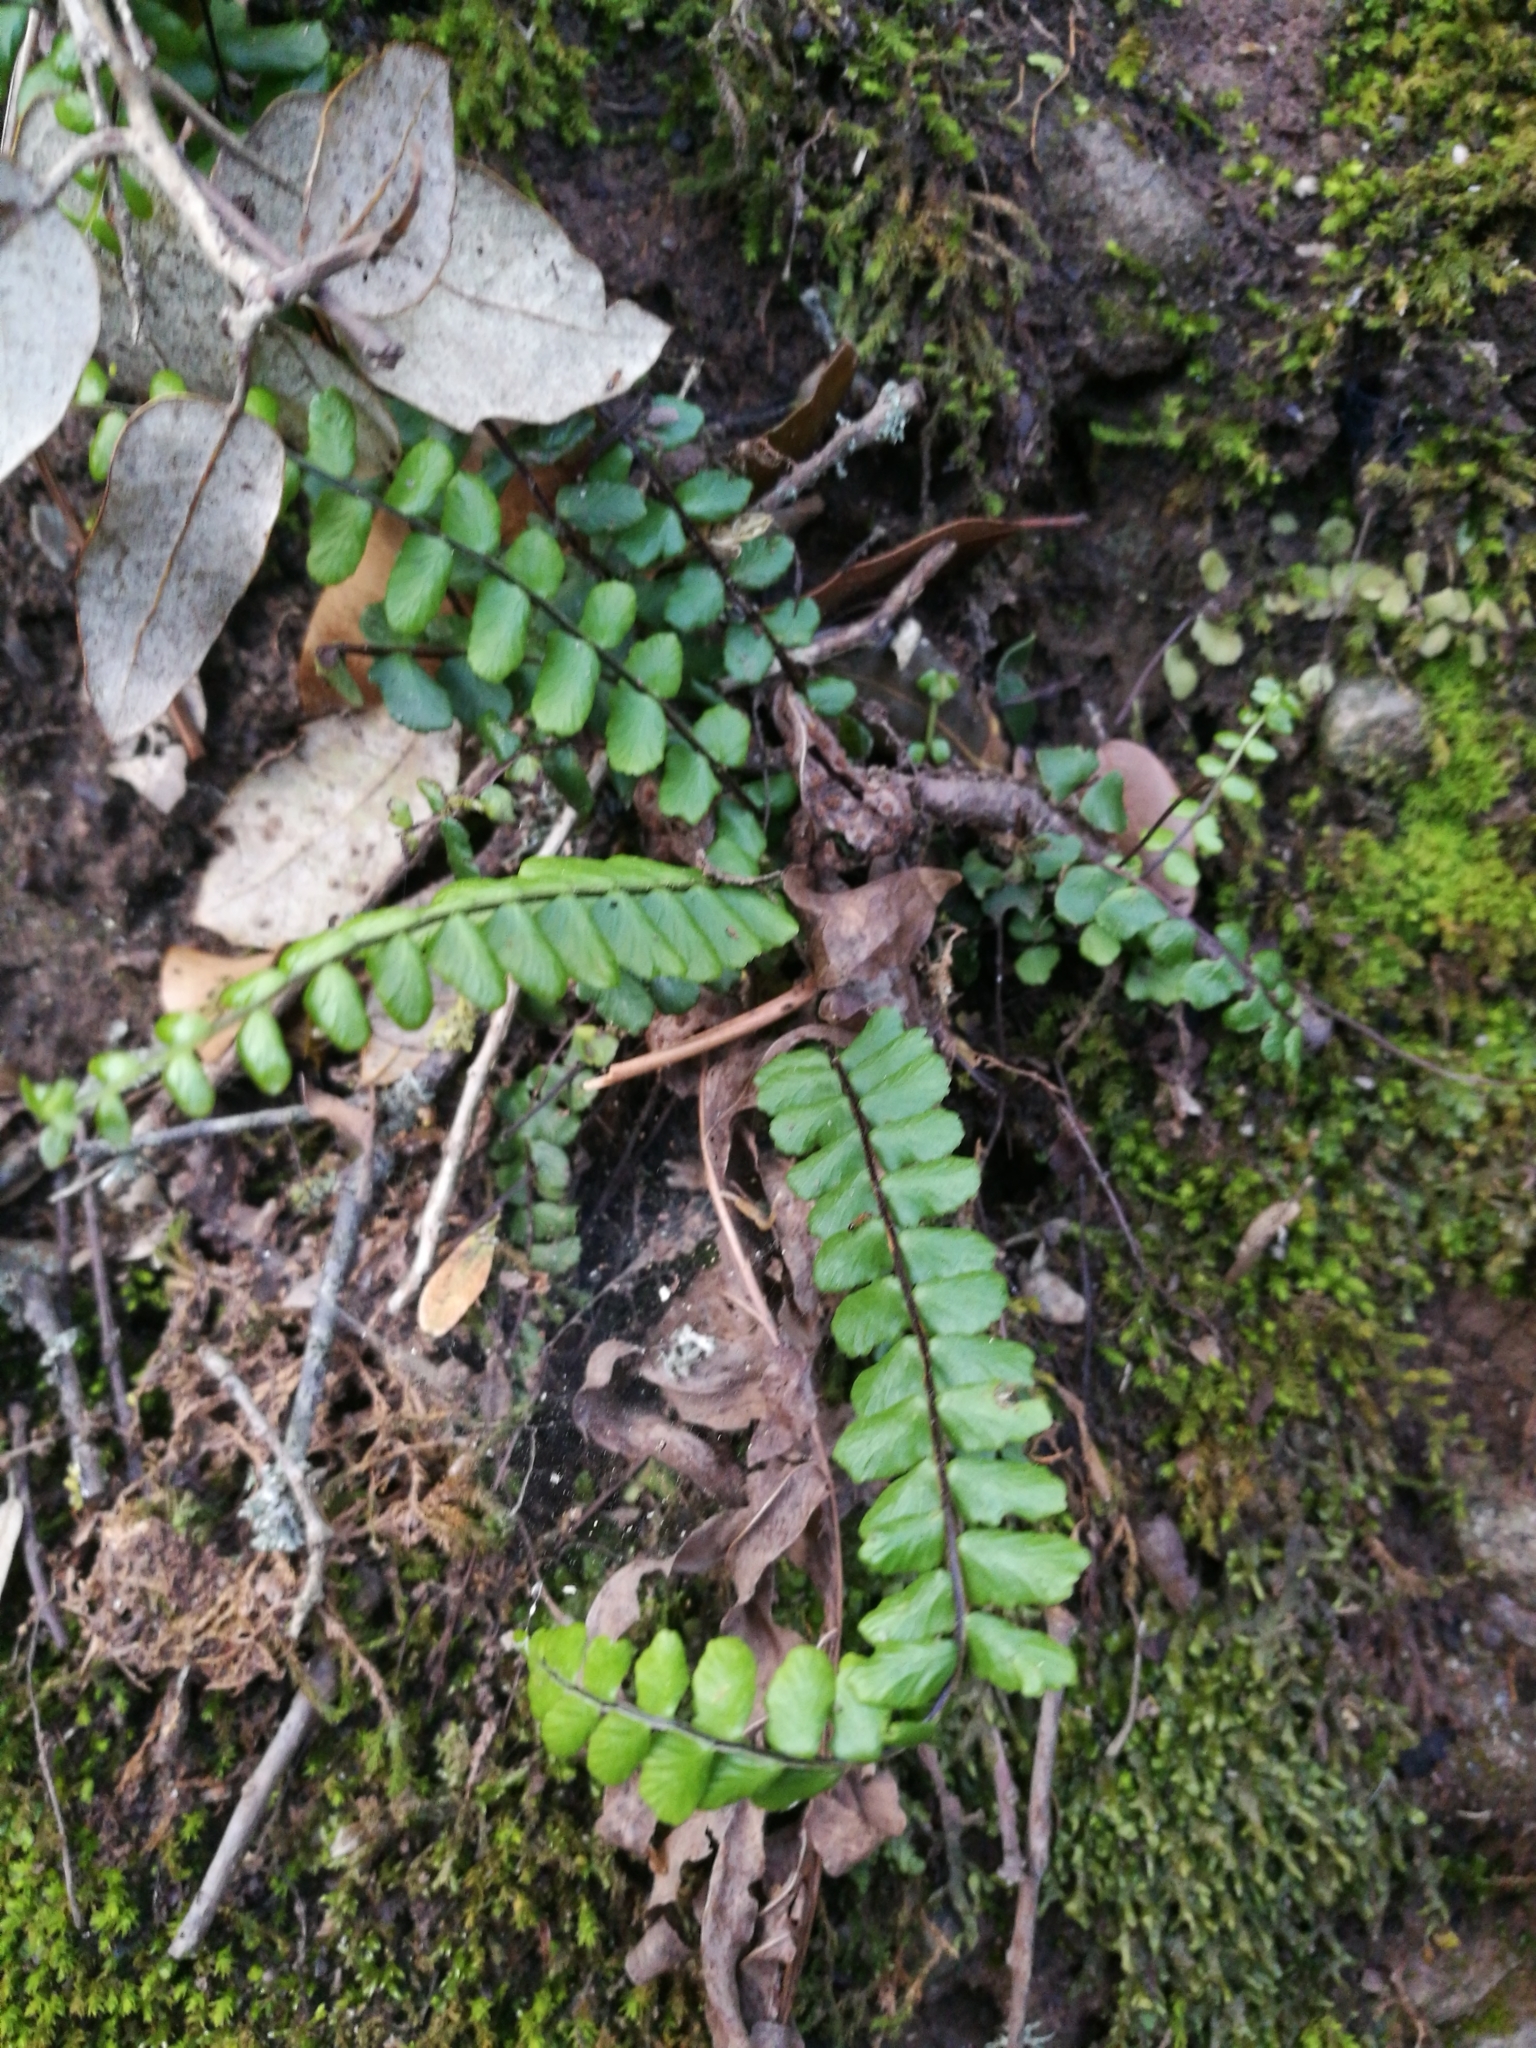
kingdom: Plantae
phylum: Tracheophyta
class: Polypodiopsida
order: Polypodiales
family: Aspleniaceae
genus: Asplenium
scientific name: Asplenium trichomanes
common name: Maidenhair spleenwort
